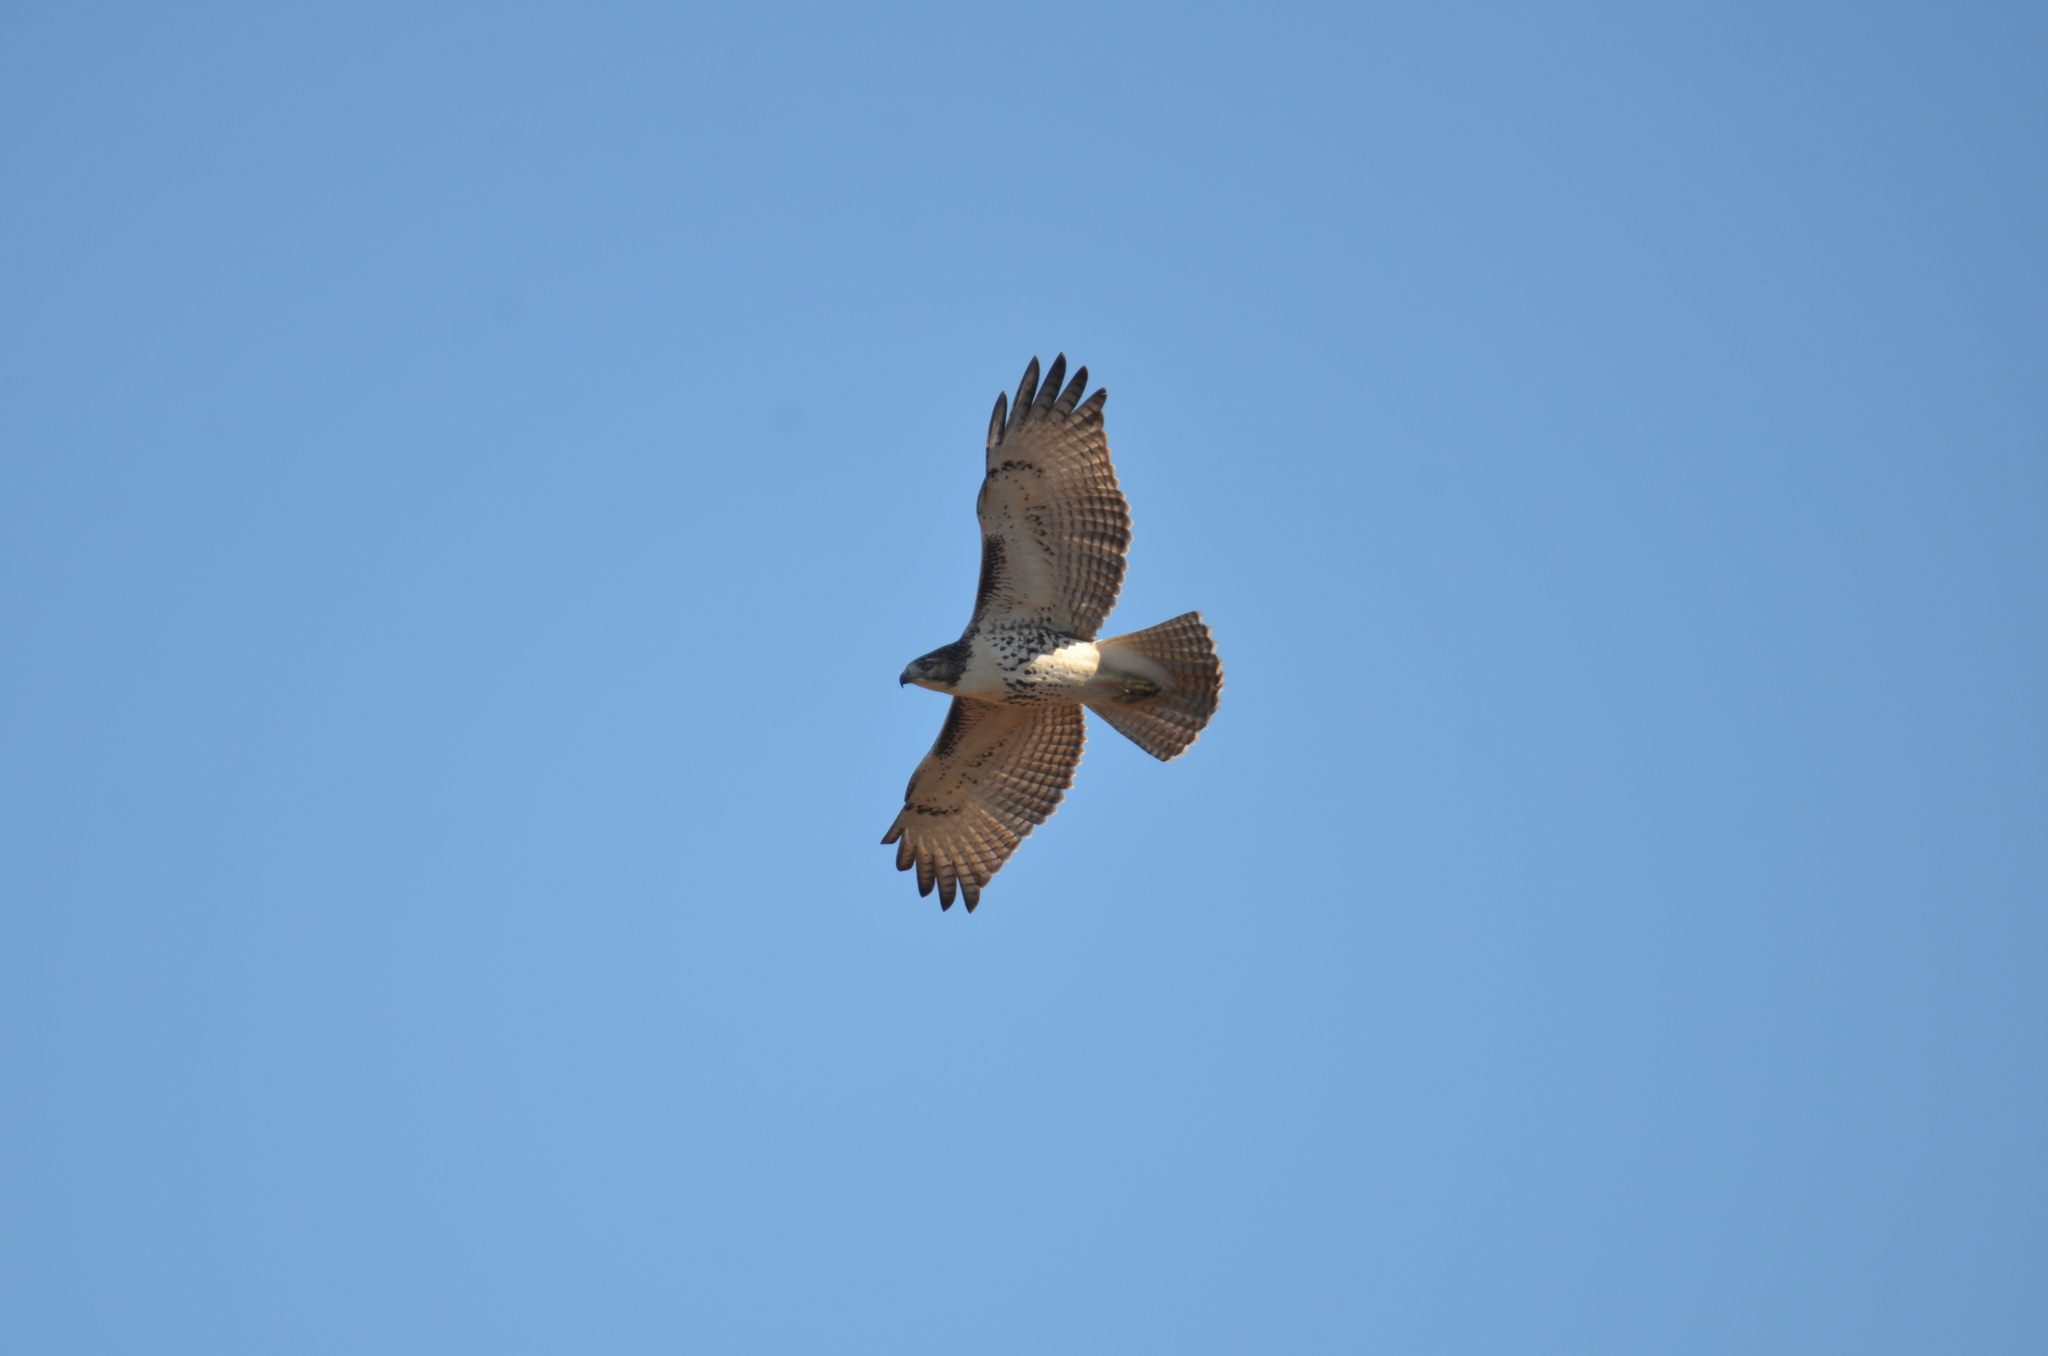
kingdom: Animalia
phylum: Chordata
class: Aves
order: Accipitriformes
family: Accipitridae
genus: Buteo
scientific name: Buteo jamaicensis
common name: Red-tailed hawk
